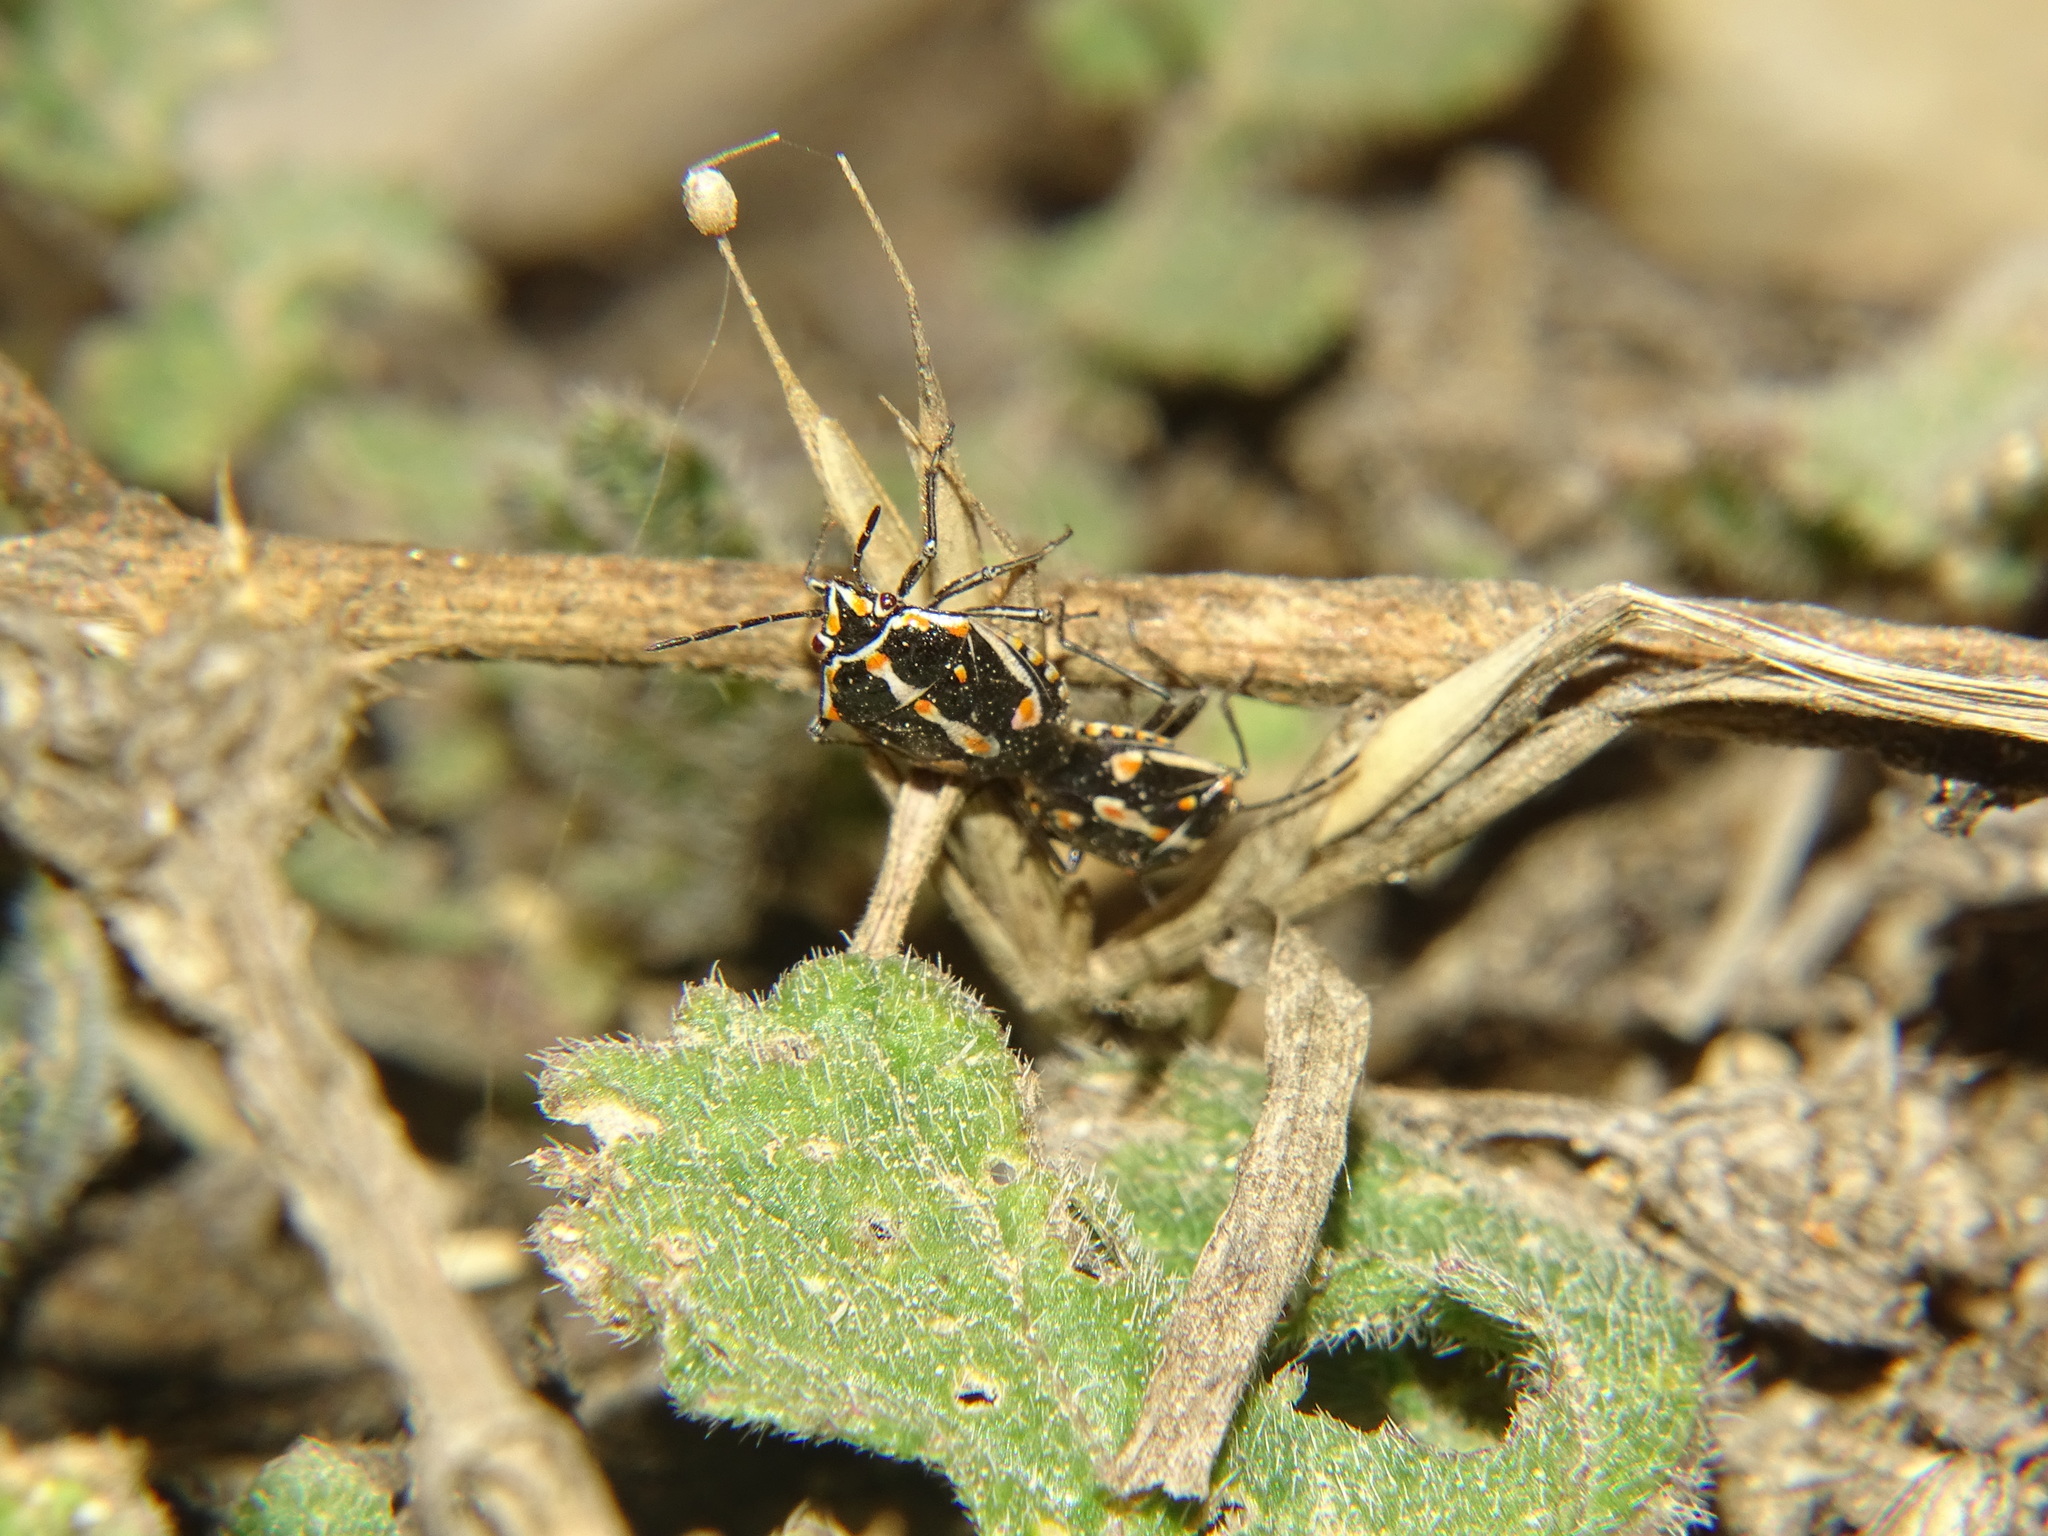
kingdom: Animalia
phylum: Arthropoda
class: Insecta
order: Hemiptera
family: Pentatomidae
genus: Bagrada
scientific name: Bagrada hilaris
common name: Bagrada bug
